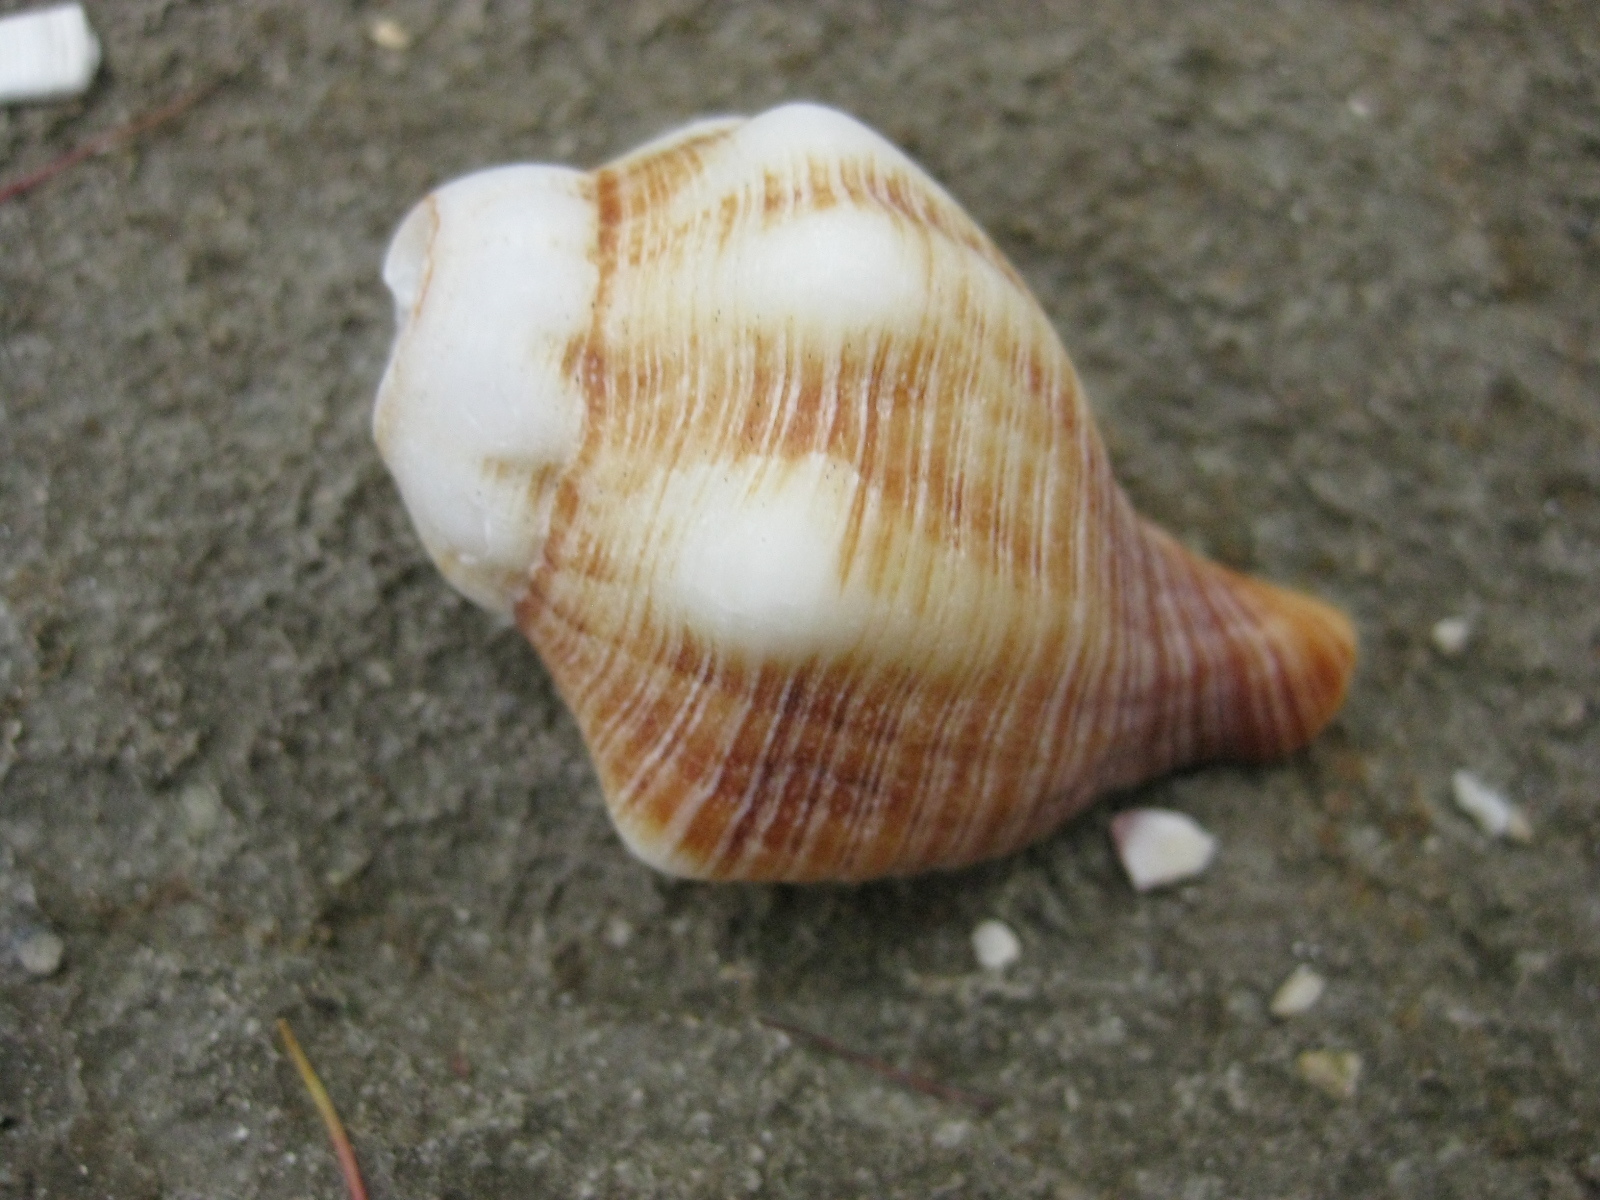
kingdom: Animalia
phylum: Mollusca
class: Gastropoda
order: Neogastropoda
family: Austrosiphonidae
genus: Penion
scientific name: Penion sulcatus
